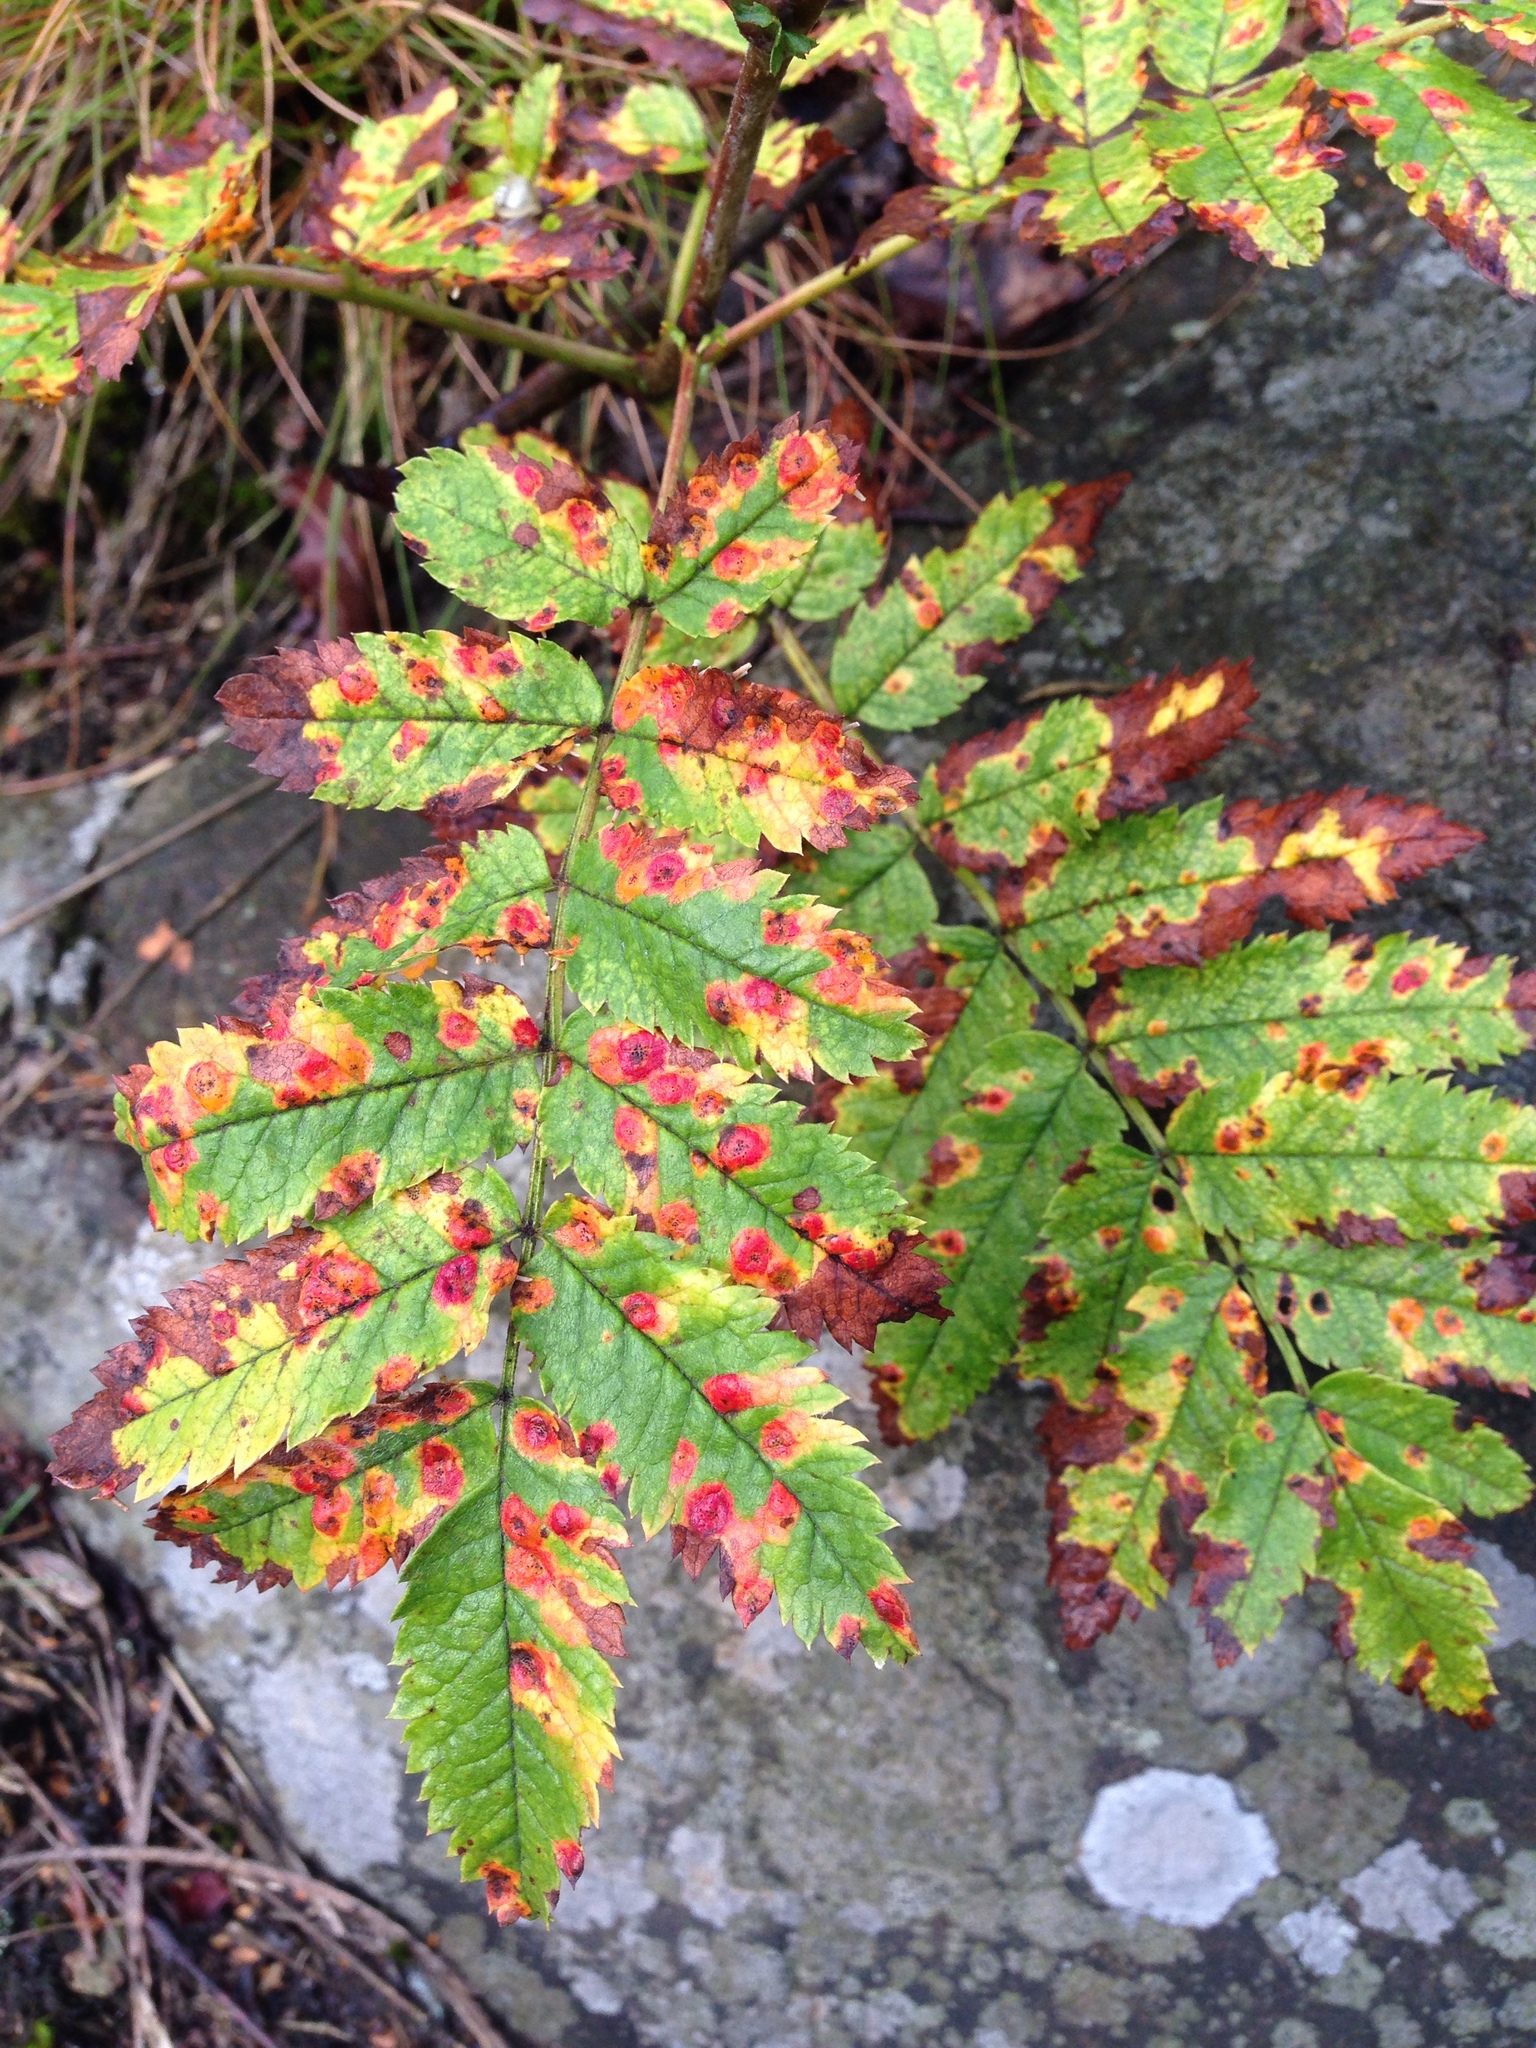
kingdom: Fungi
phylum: Basidiomycota
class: Pucciniomycetes
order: Pucciniales
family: Gymnosporangiaceae
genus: Gymnosporangium
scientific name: Gymnosporangium cornutum
